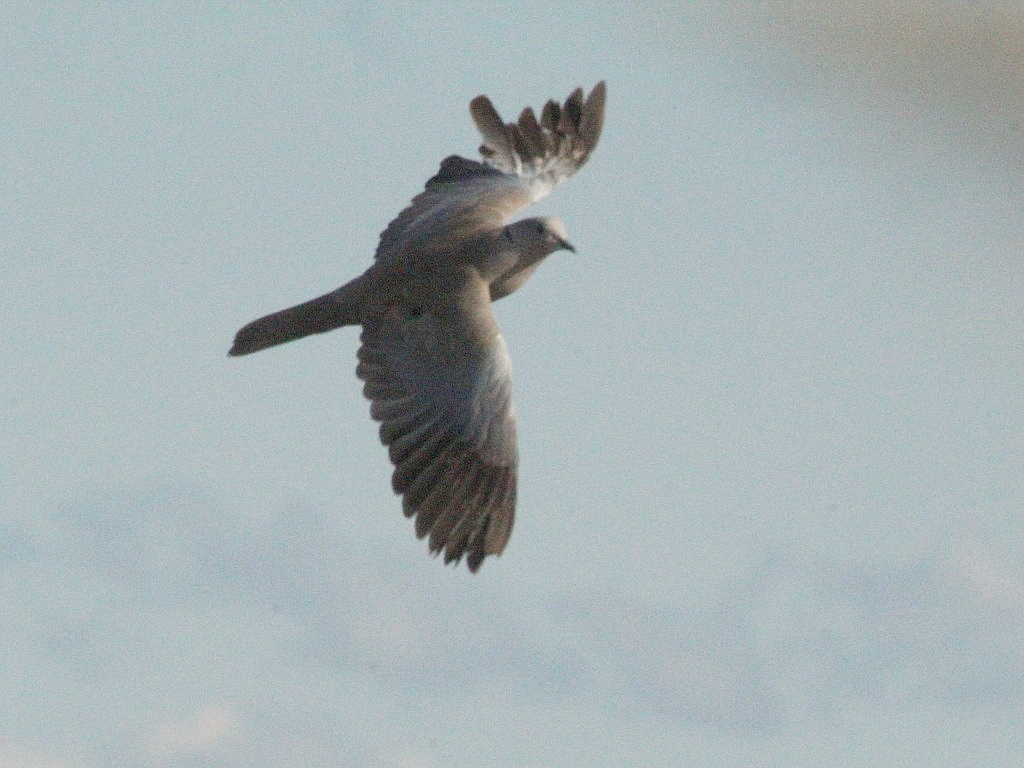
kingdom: Animalia
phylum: Chordata
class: Aves
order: Columbiformes
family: Columbidae
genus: Streptopelia
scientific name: Streptopelia decaocto
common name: Eurasian collared dove
